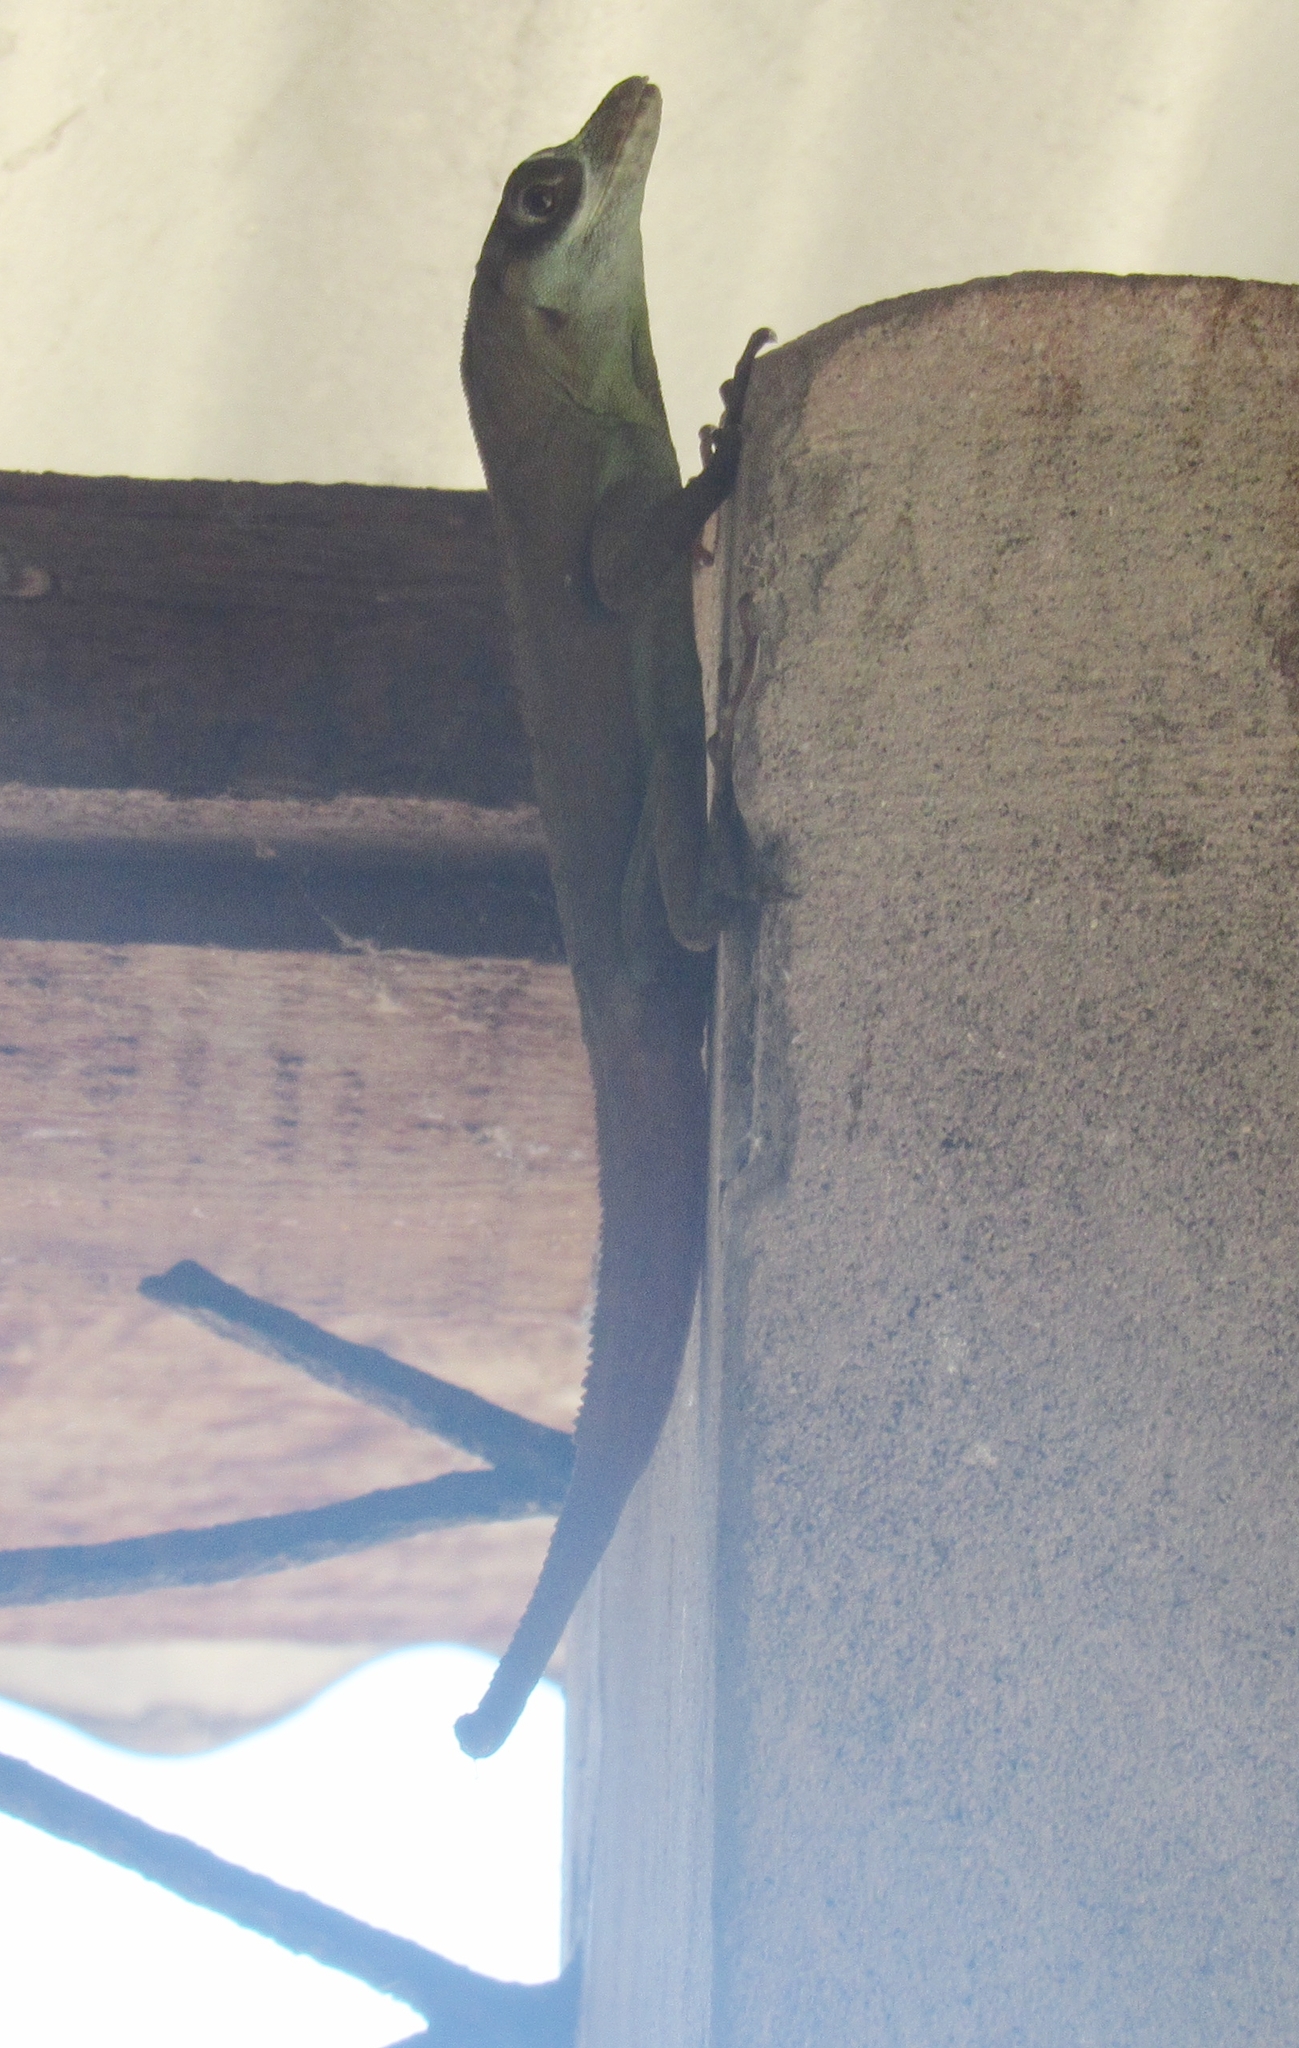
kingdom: Animalia
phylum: Chordata
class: Squamata
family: Dactyloidae
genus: Anolis
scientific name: Anolis richardii
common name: Grenada tree anole
